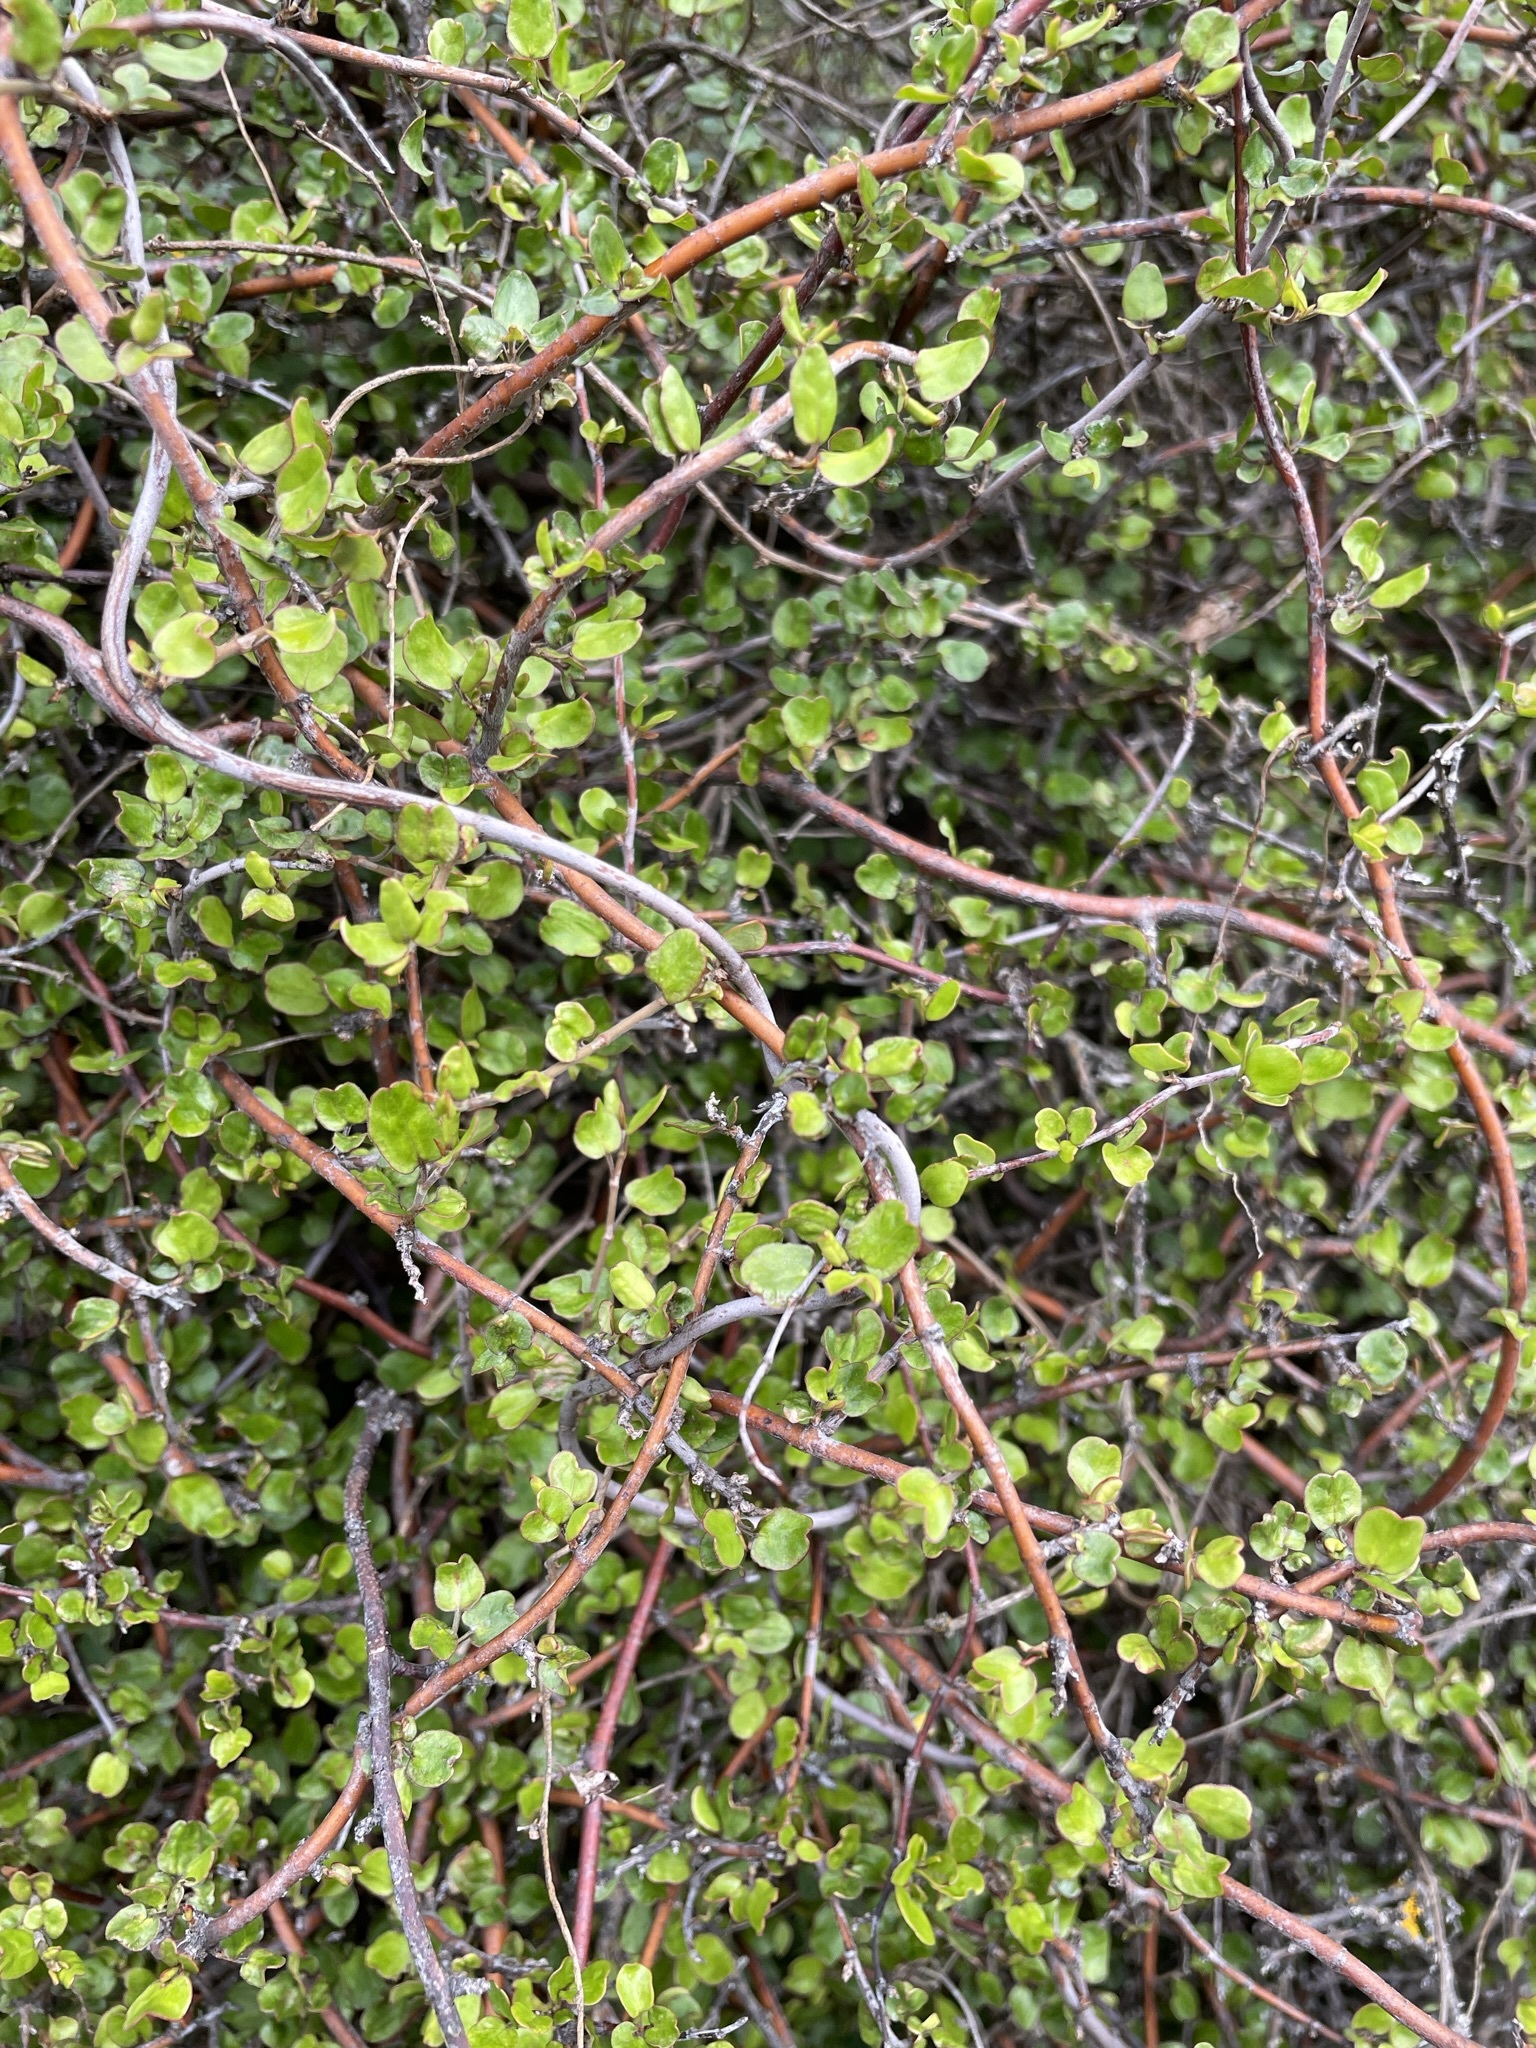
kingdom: Plantae
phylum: Tracheophyta
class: Magnoliopsida
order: Caryophyllales
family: Polygonaceae
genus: Muehlenbeckia
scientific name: Muehlenbeckia complexa
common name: Wireplant
